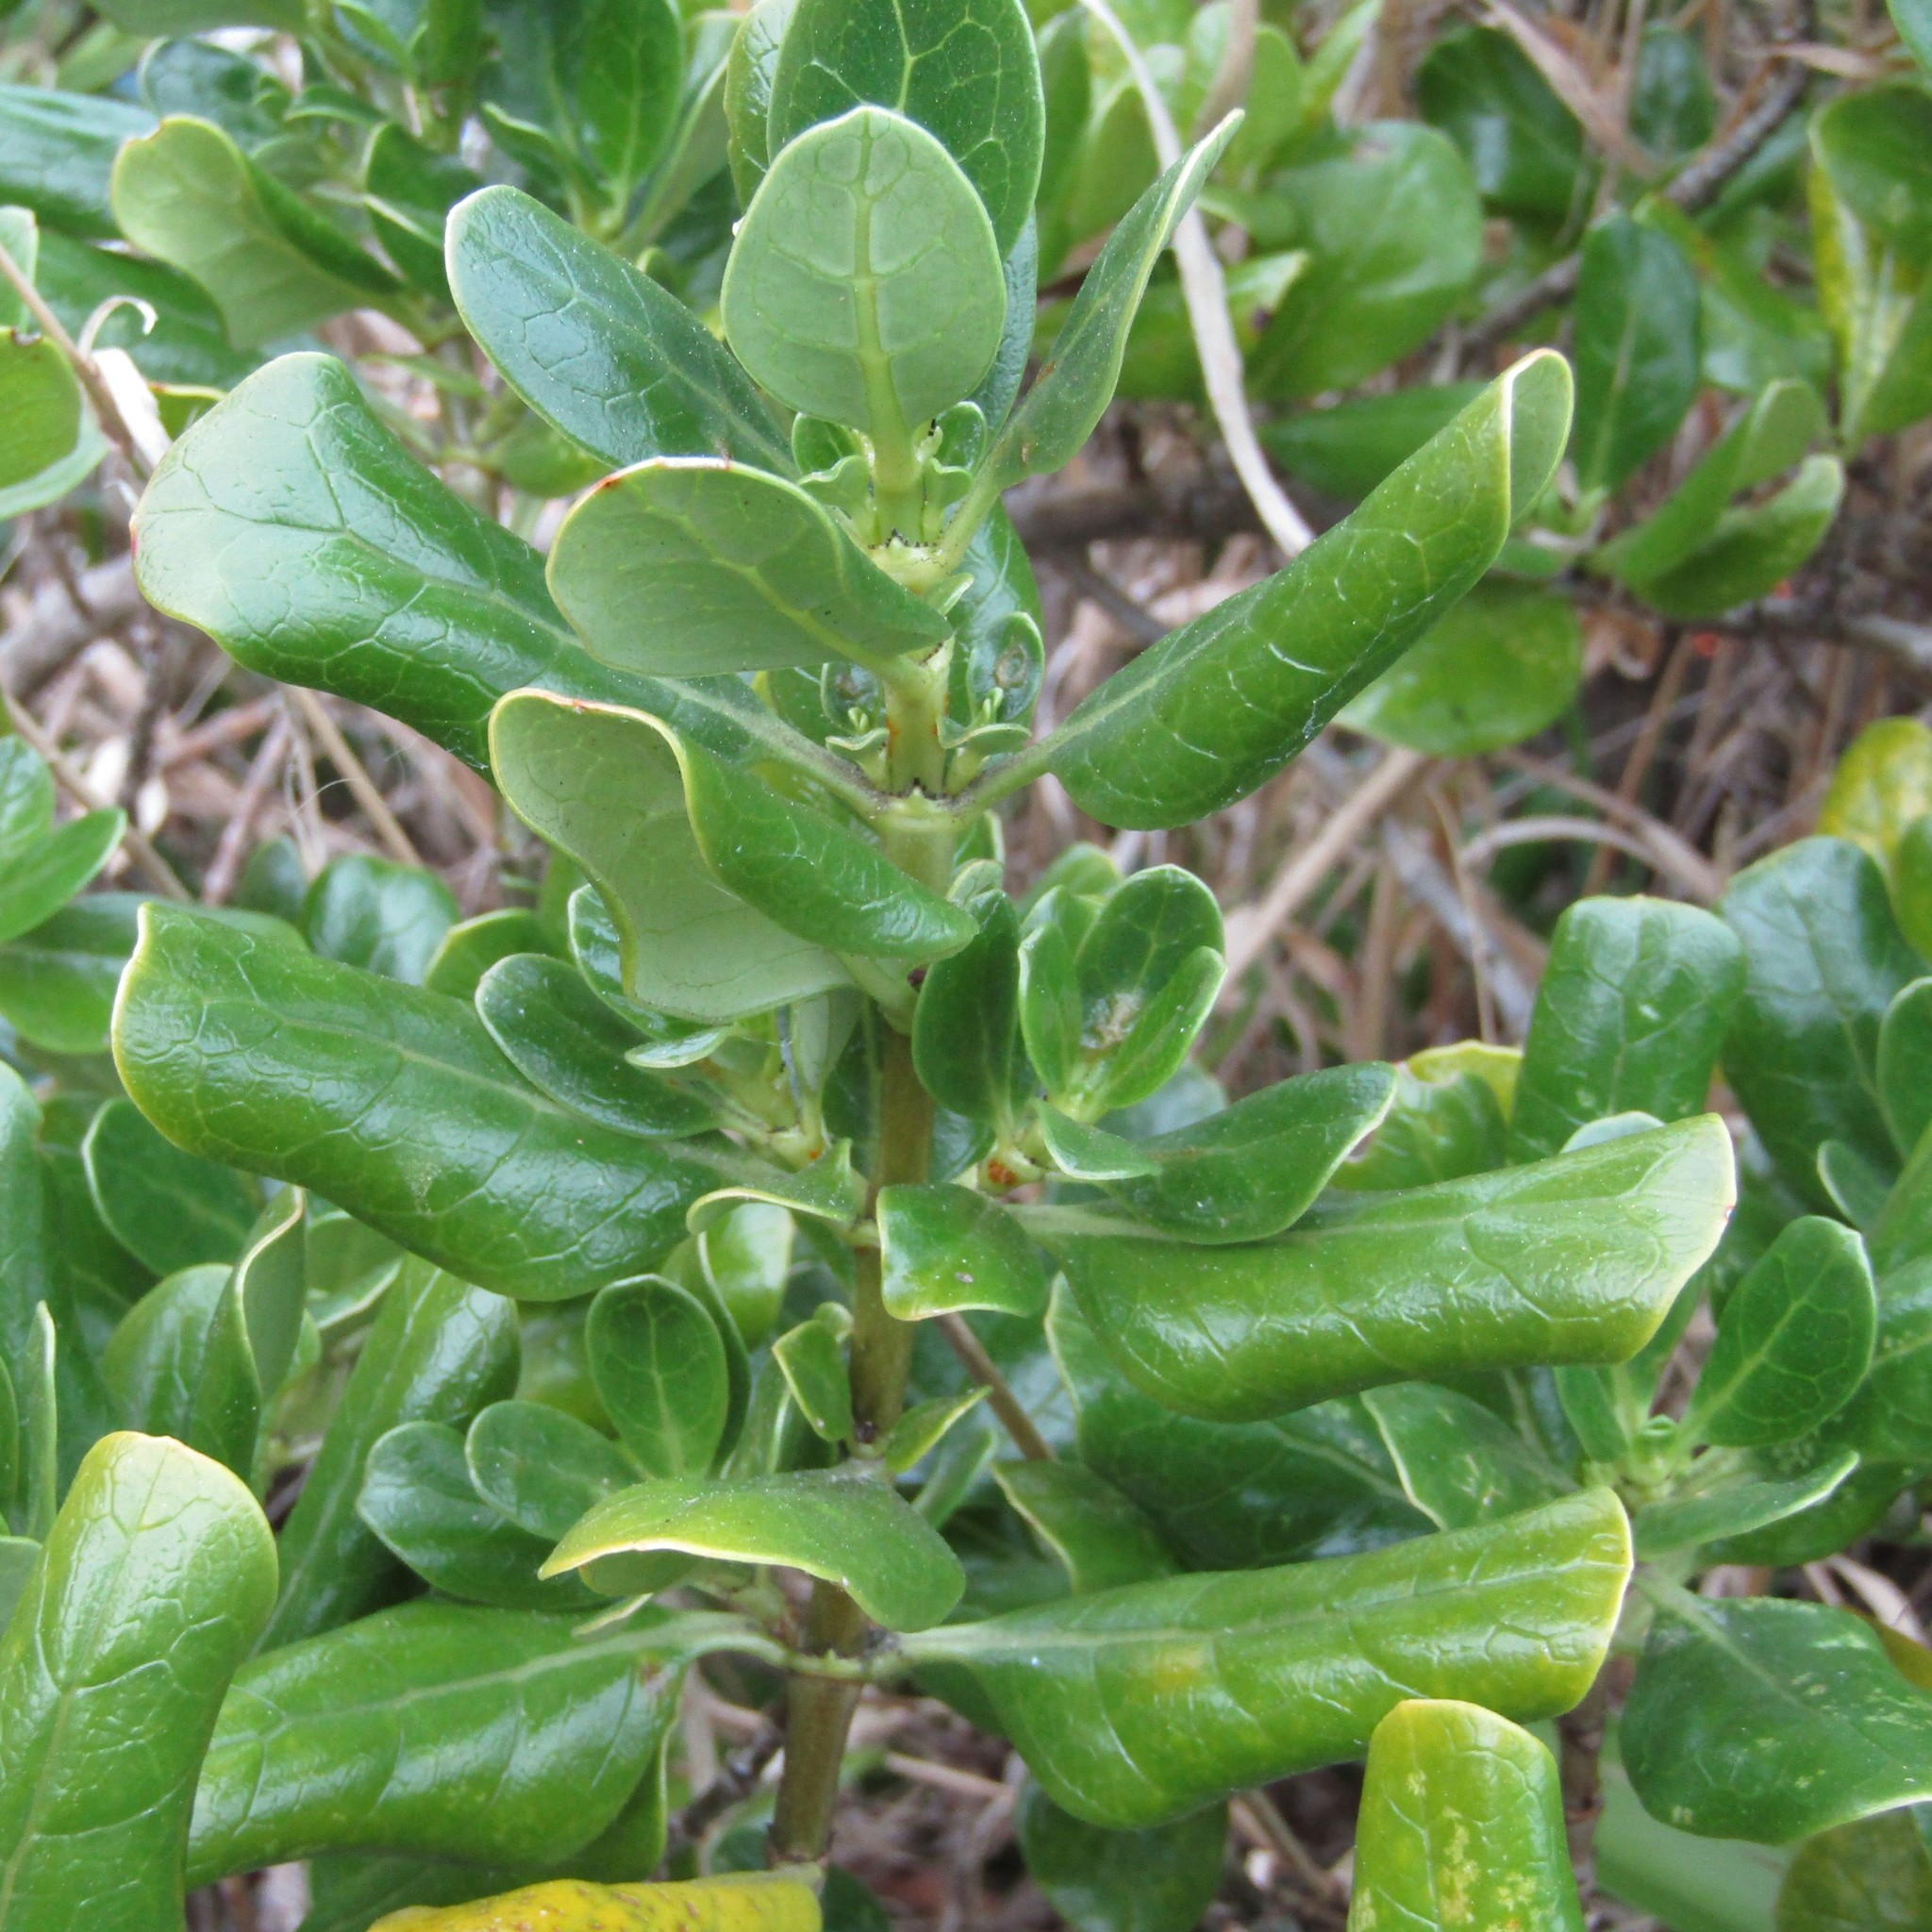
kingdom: Plantae
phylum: Tracheophyta
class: Magnoliopsida
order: Gentianales
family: Rubiaceae
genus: Coprosma
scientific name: Coprosma repens
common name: Tree bedstraw
